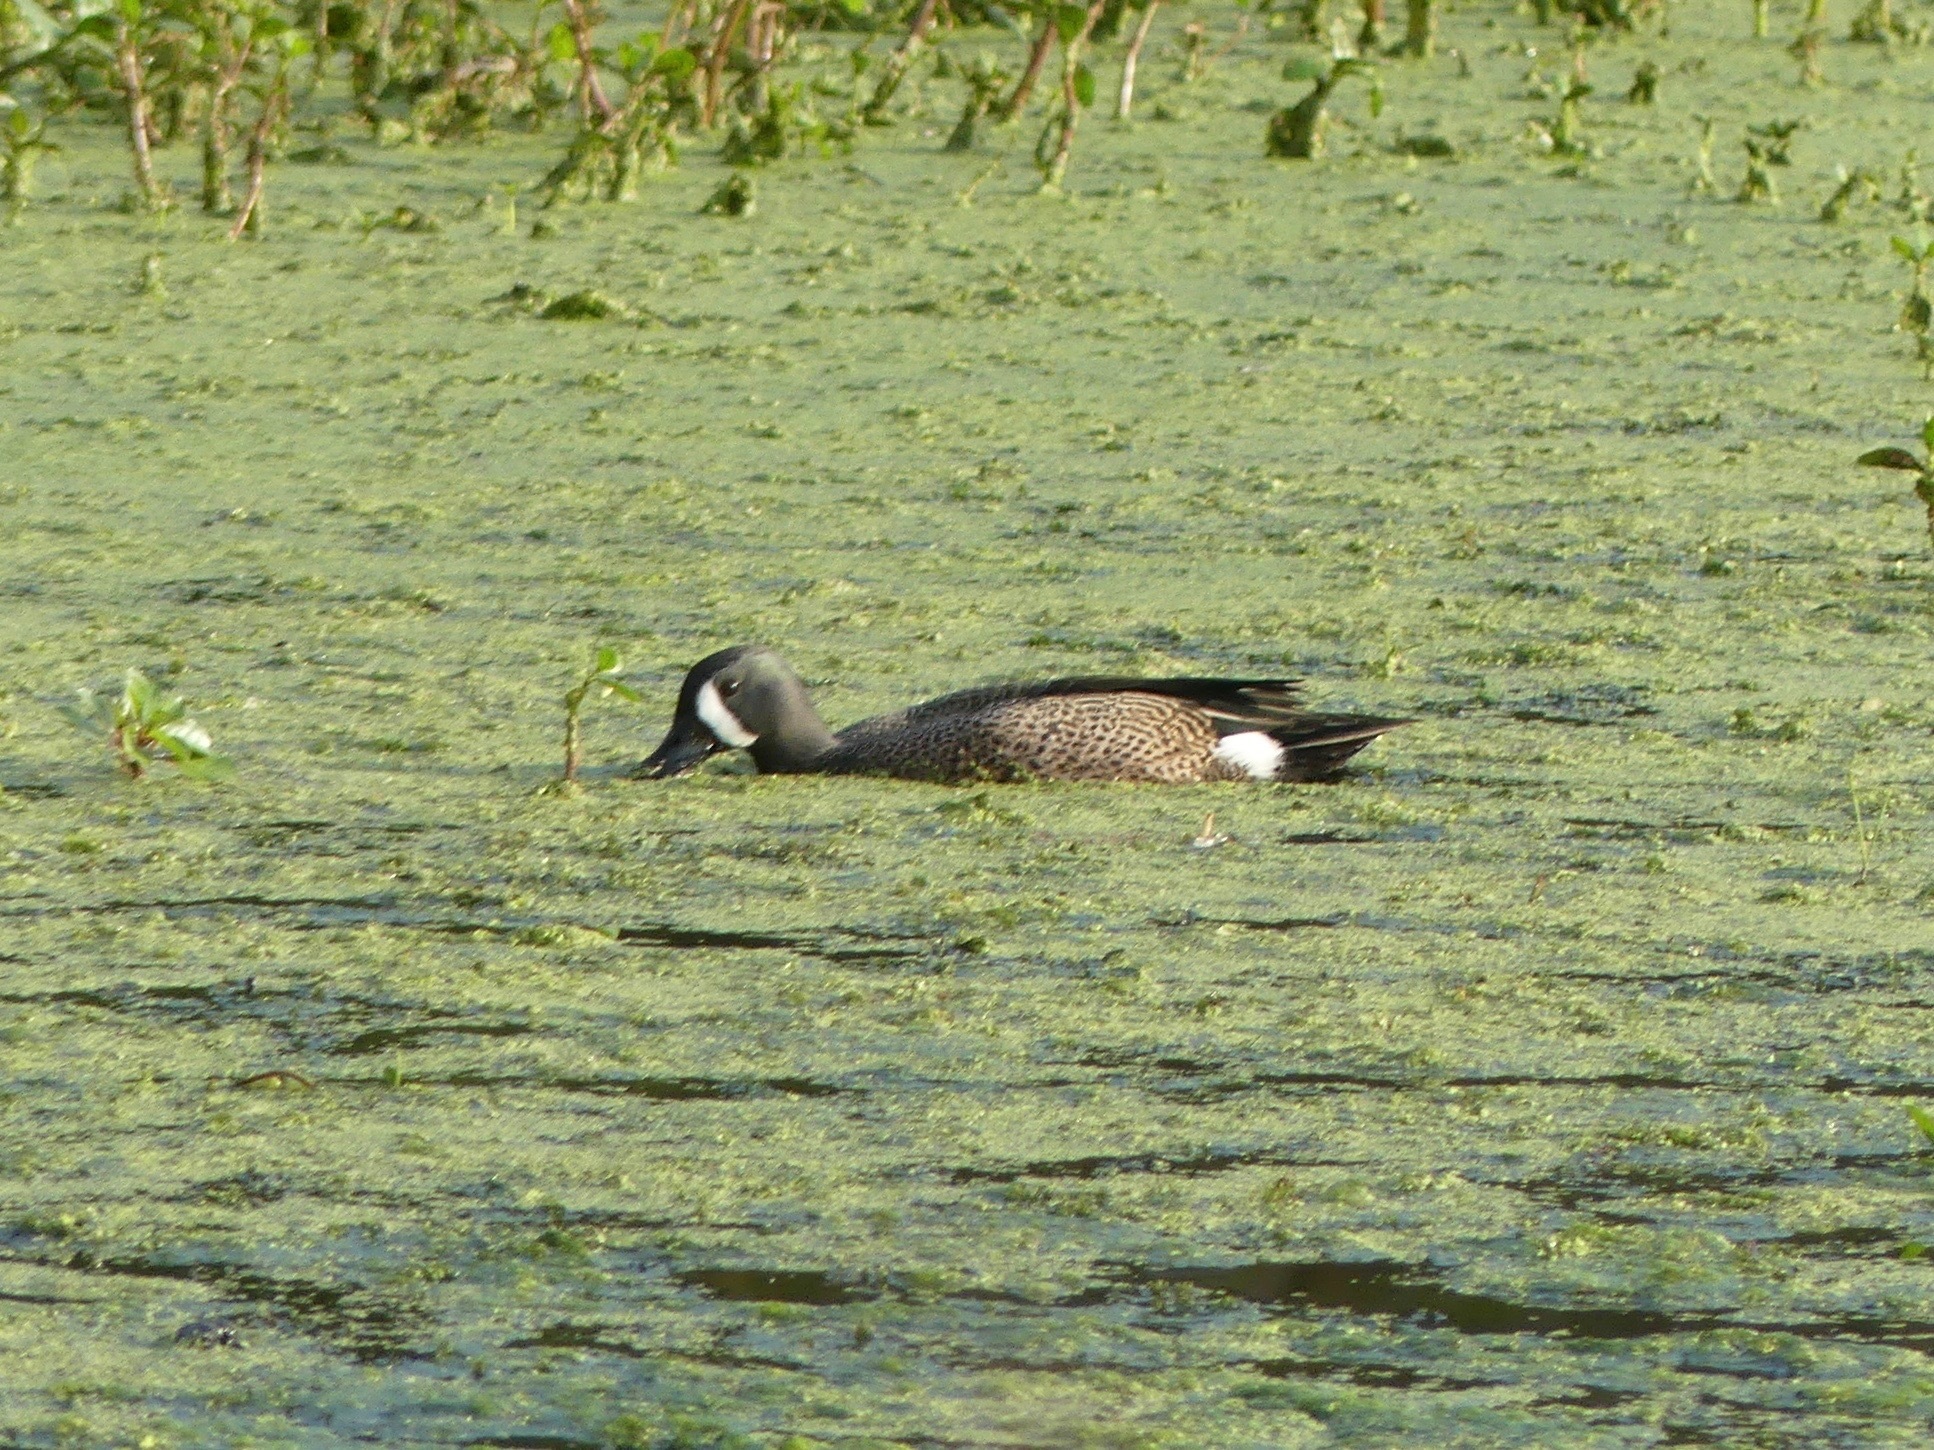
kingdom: Animalia
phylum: Chordata
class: Aves
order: Anseriformes
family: Anatidae
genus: Spatula
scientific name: Spatula discors
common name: Blue-winged teal
